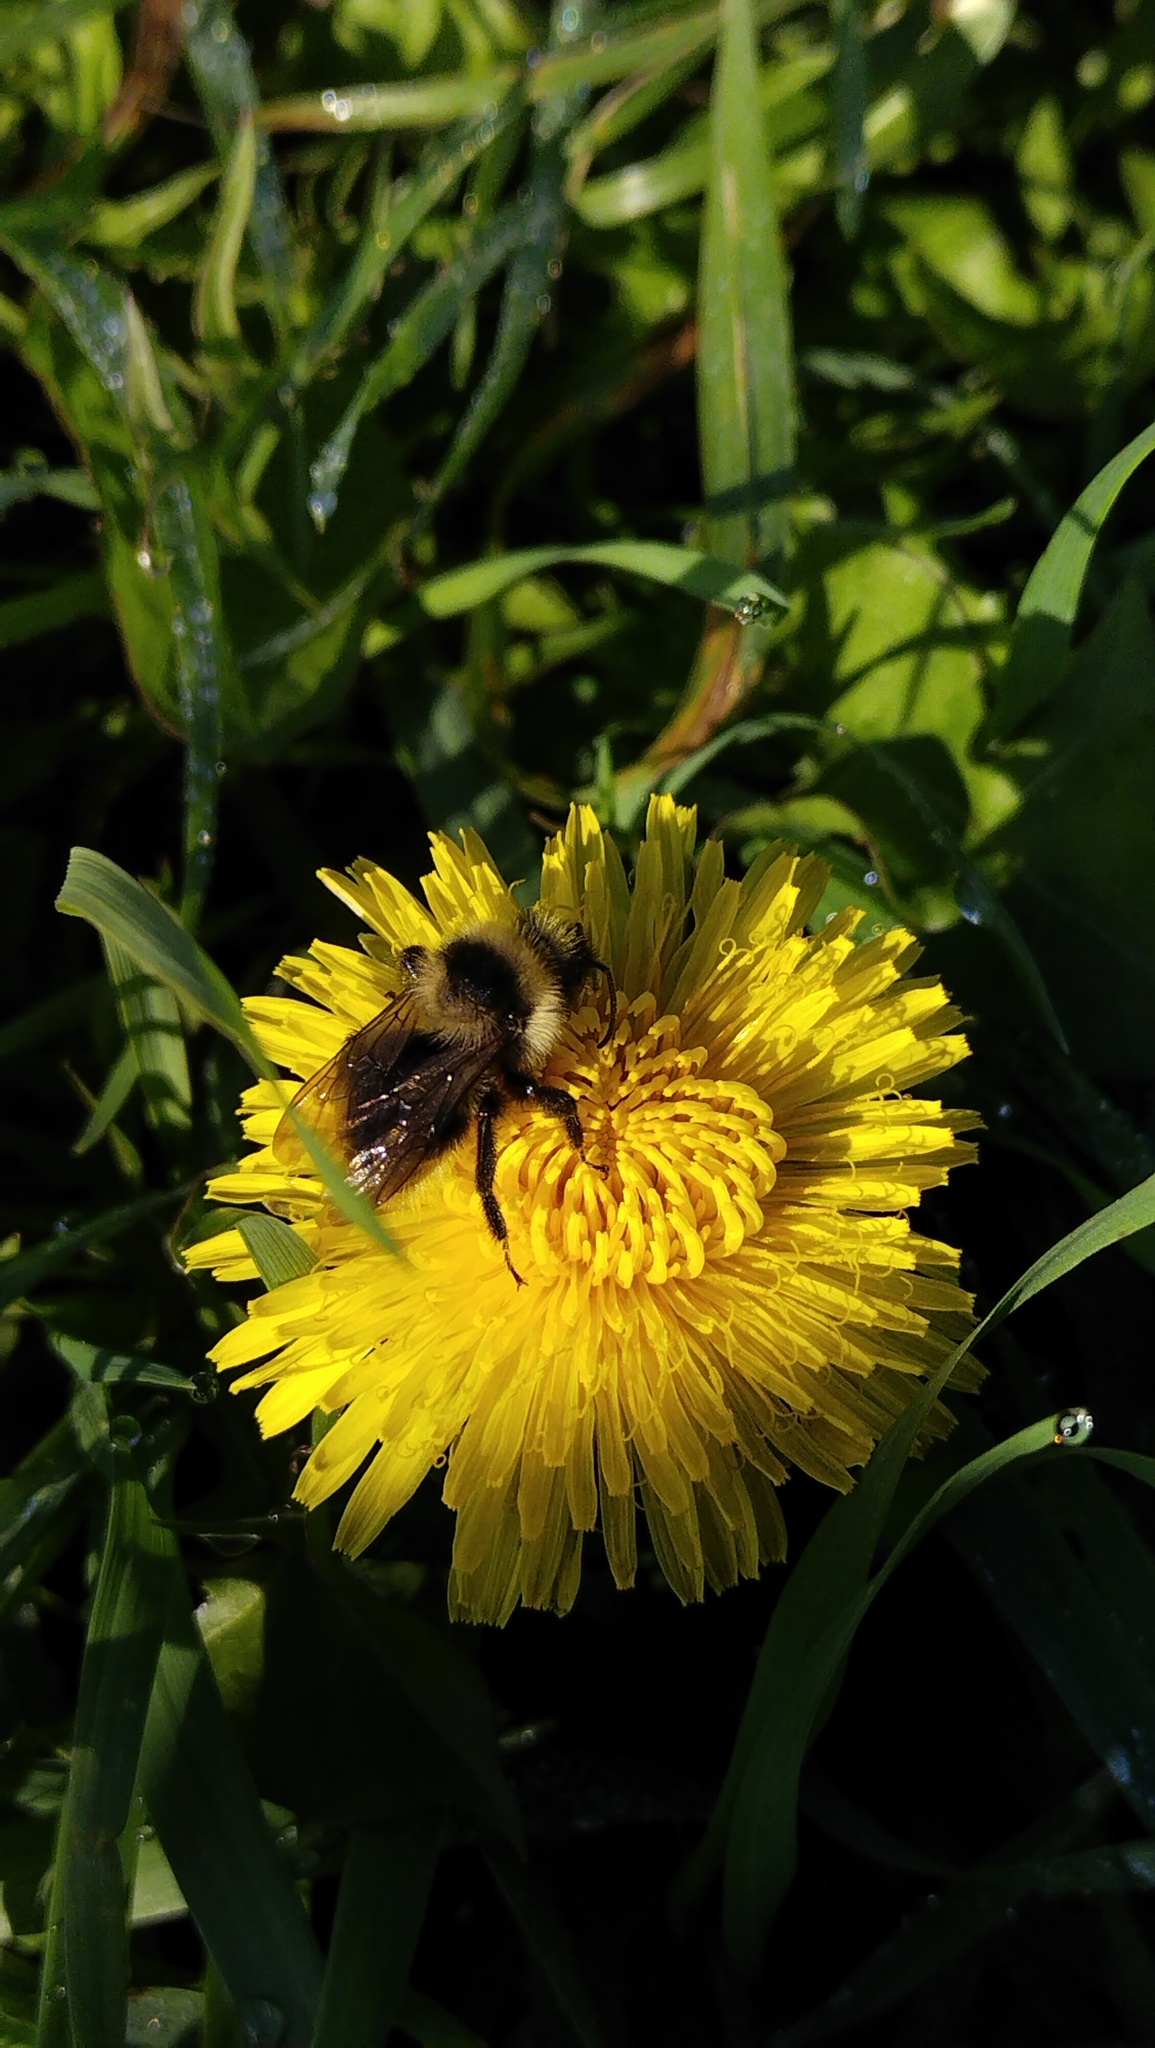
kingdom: Animalia
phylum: Arthropoda
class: Insecta
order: Hymenoptera
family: Apidae
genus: Bombus
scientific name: Bombus campestris
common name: Field cuckoo-bee
